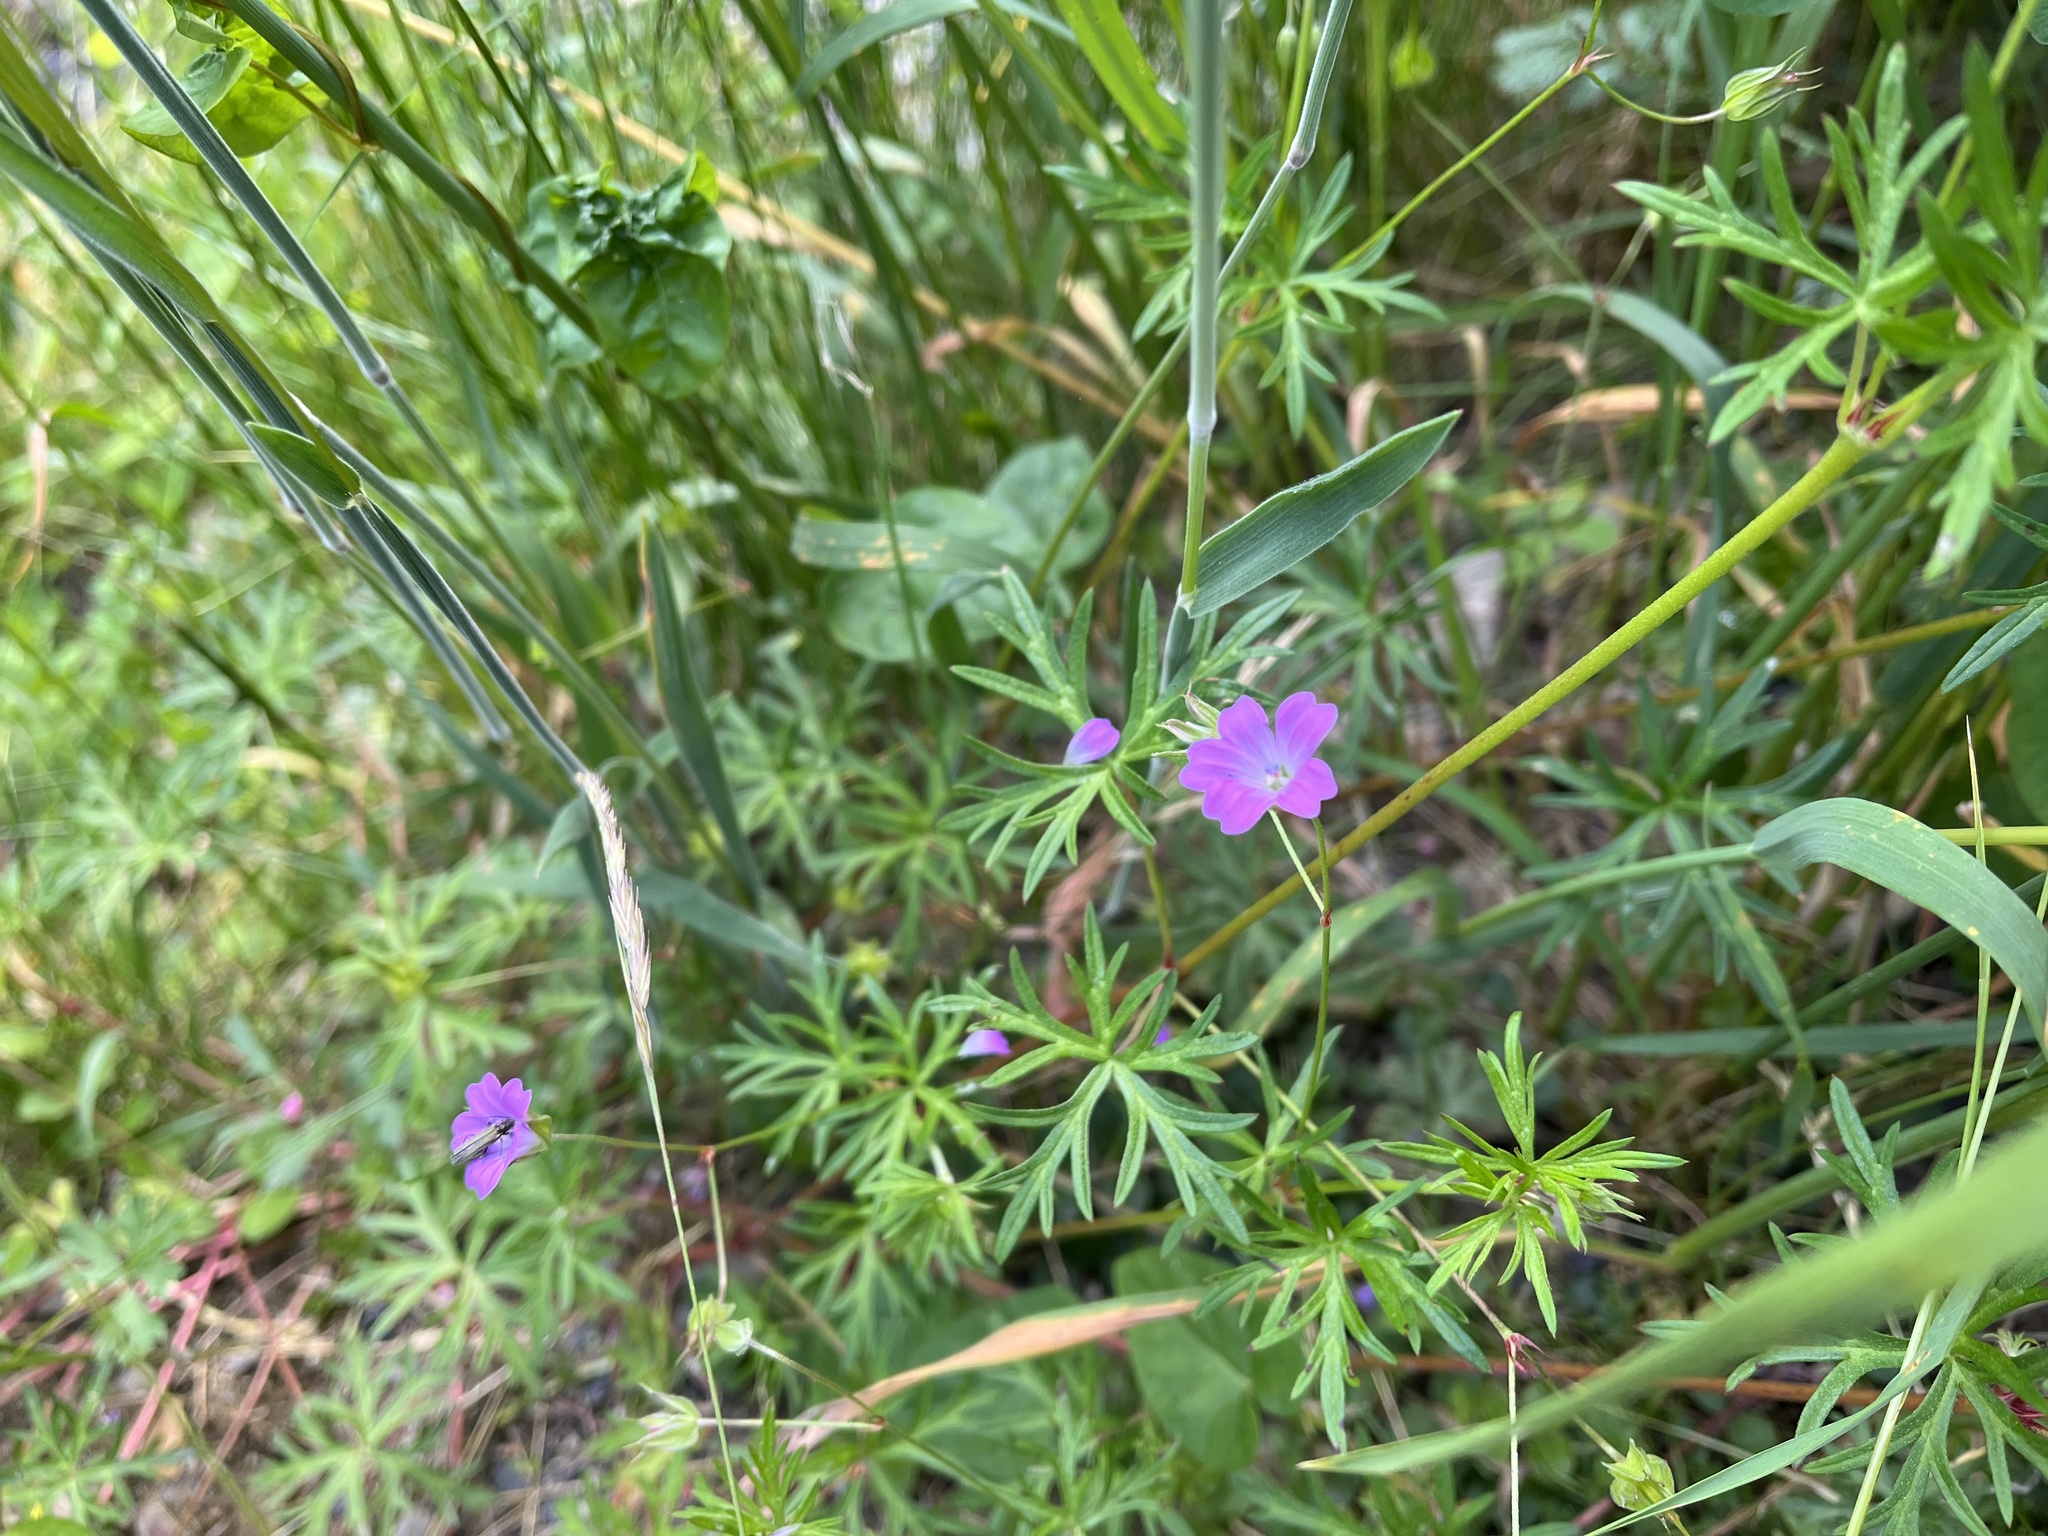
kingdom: Plantae
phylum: Tracheophyta
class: Magnoliopsida
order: Geraniales
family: Geraniaceae
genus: Geranium
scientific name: Geranium columbinum
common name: Long-stalked crane's-bill
